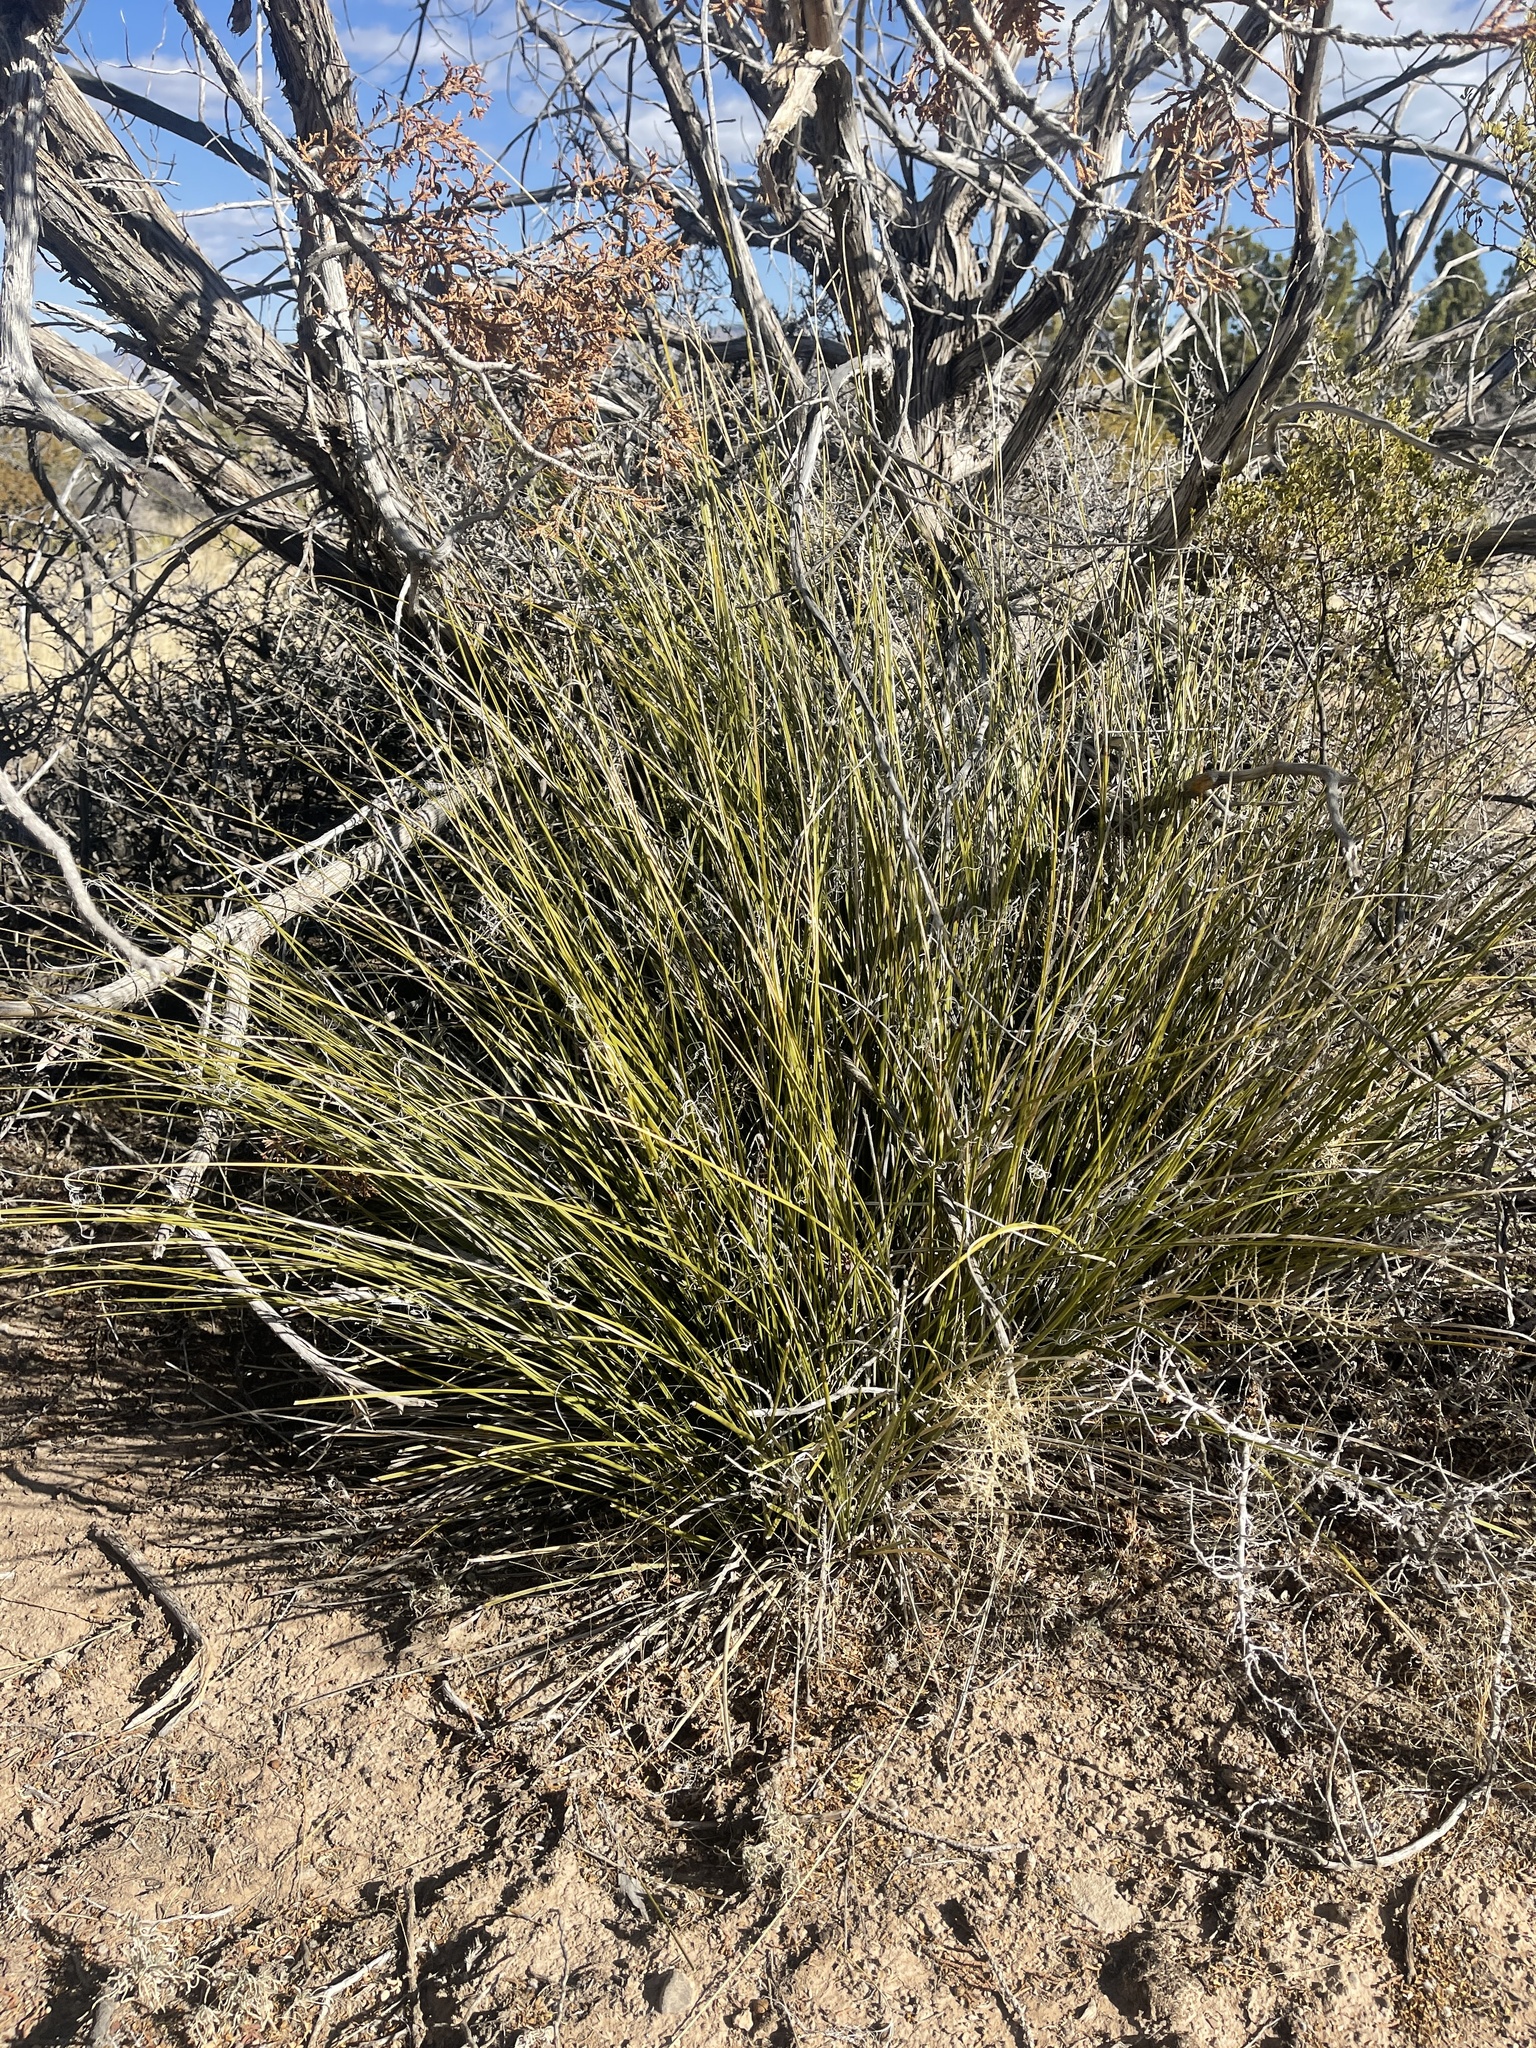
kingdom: Plantae
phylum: Tracheophyta
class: Liliopsida
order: Asparagales
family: Asparagaceae
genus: Nolina
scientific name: Nolina texana
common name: Texas sacahuiste
